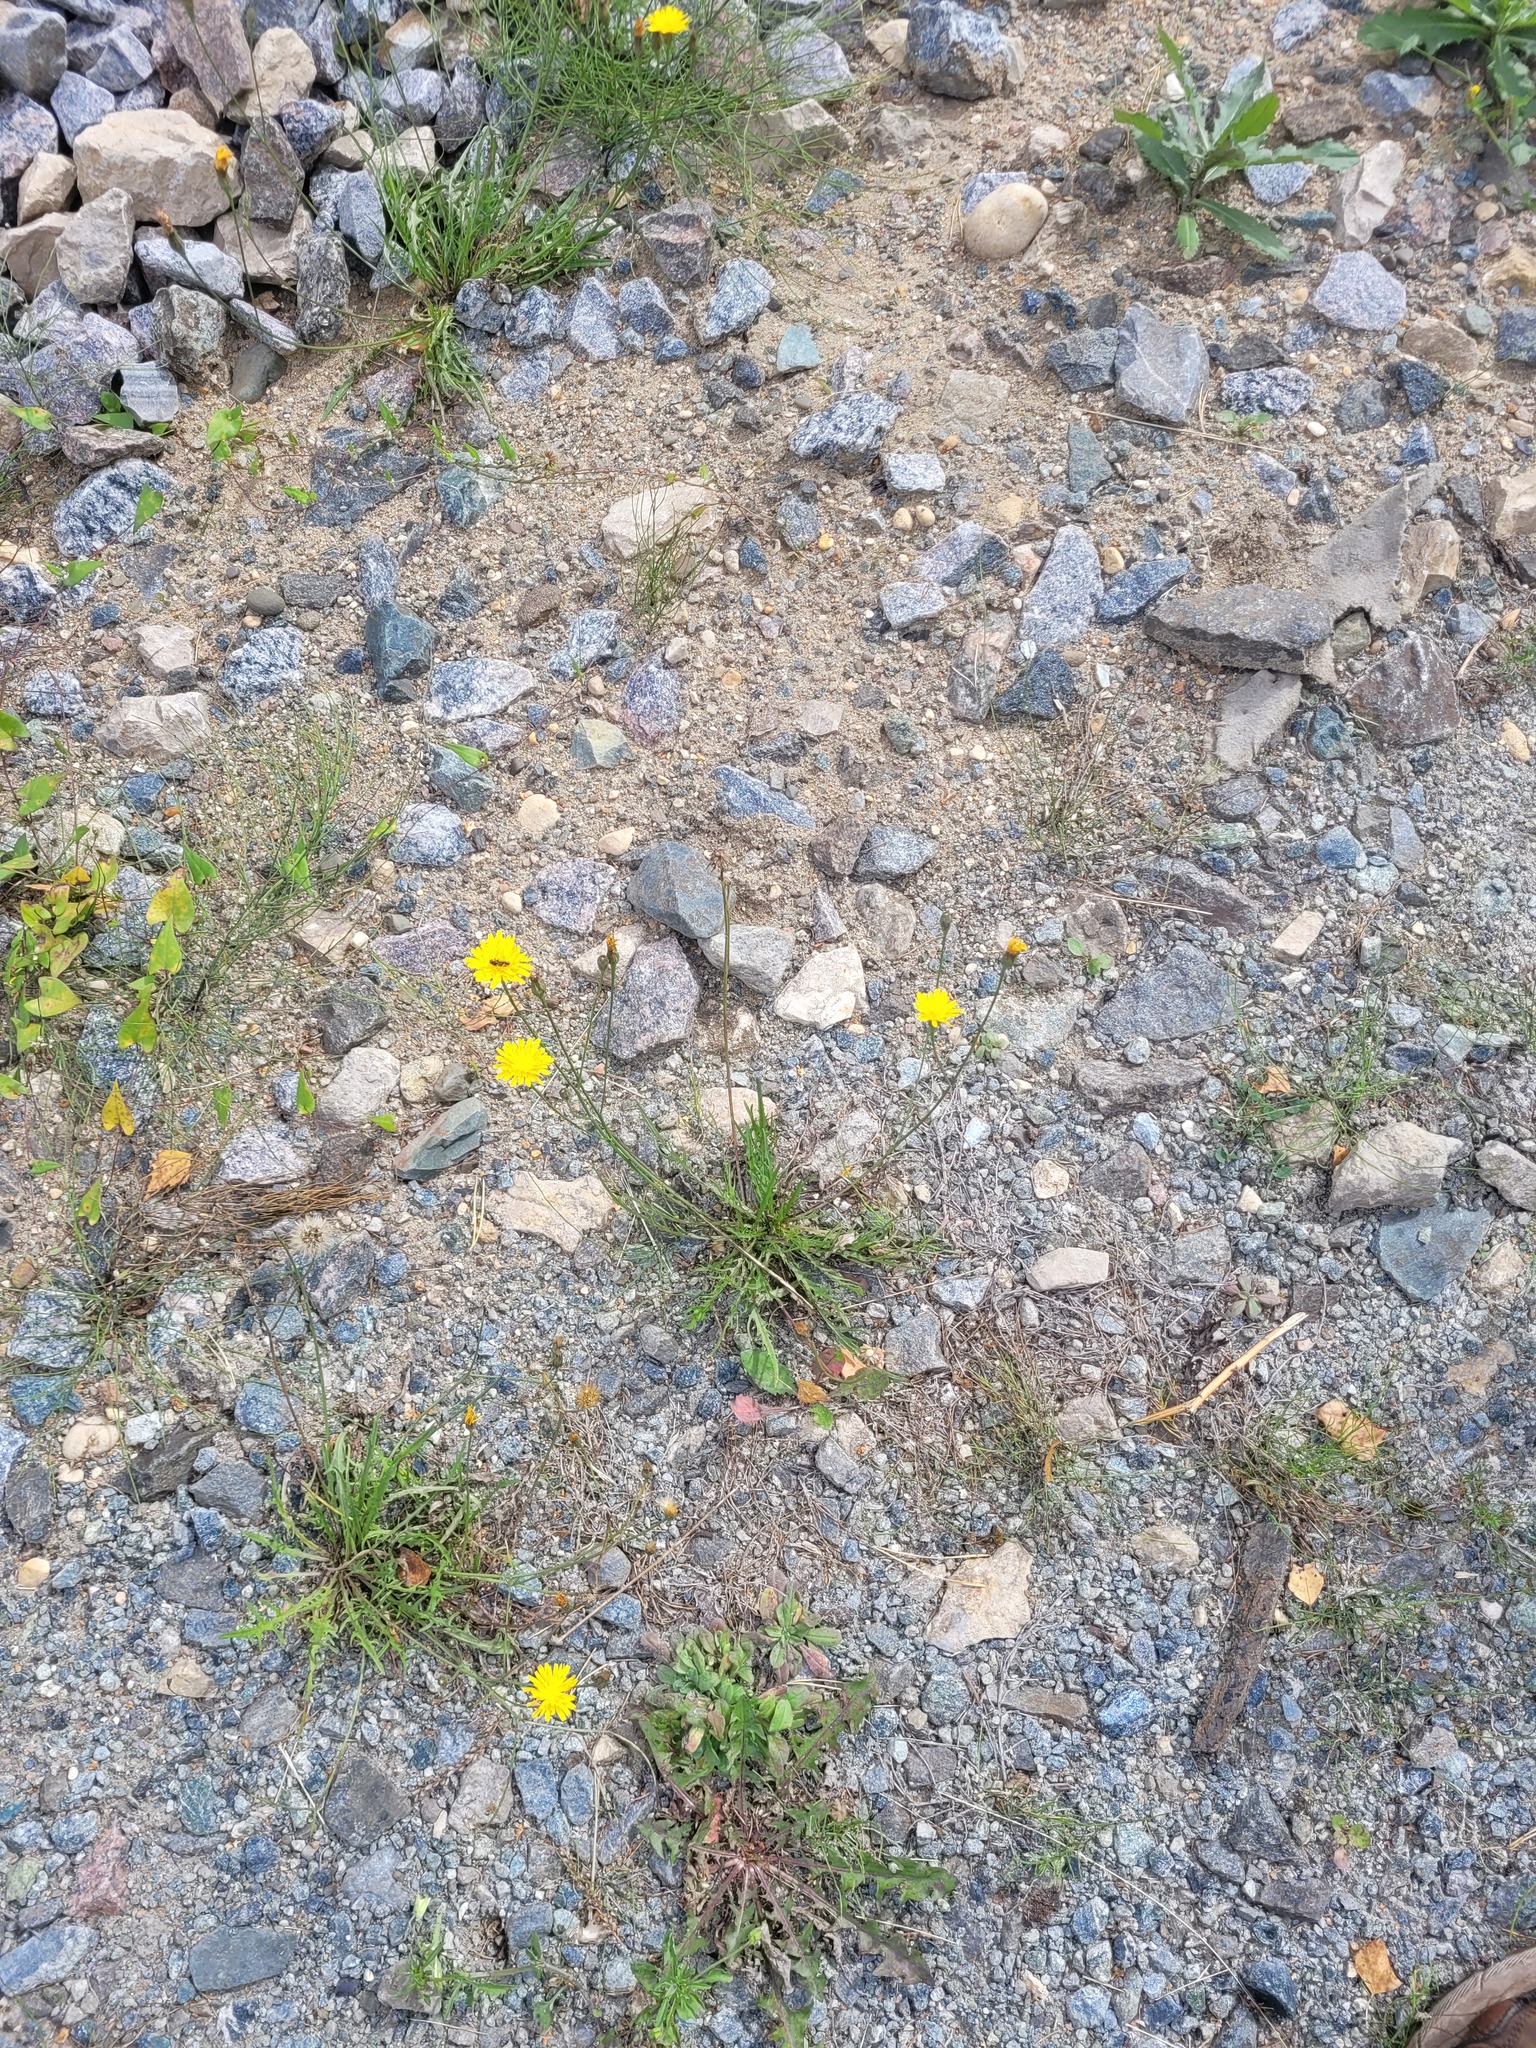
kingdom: Plantae
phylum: Tracheophyta
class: Magnoliopsida
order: Asterales
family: Asteraceae
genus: Scorzoneroides
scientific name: Scorzoneroides autumnalis
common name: Autumn hawkbit
